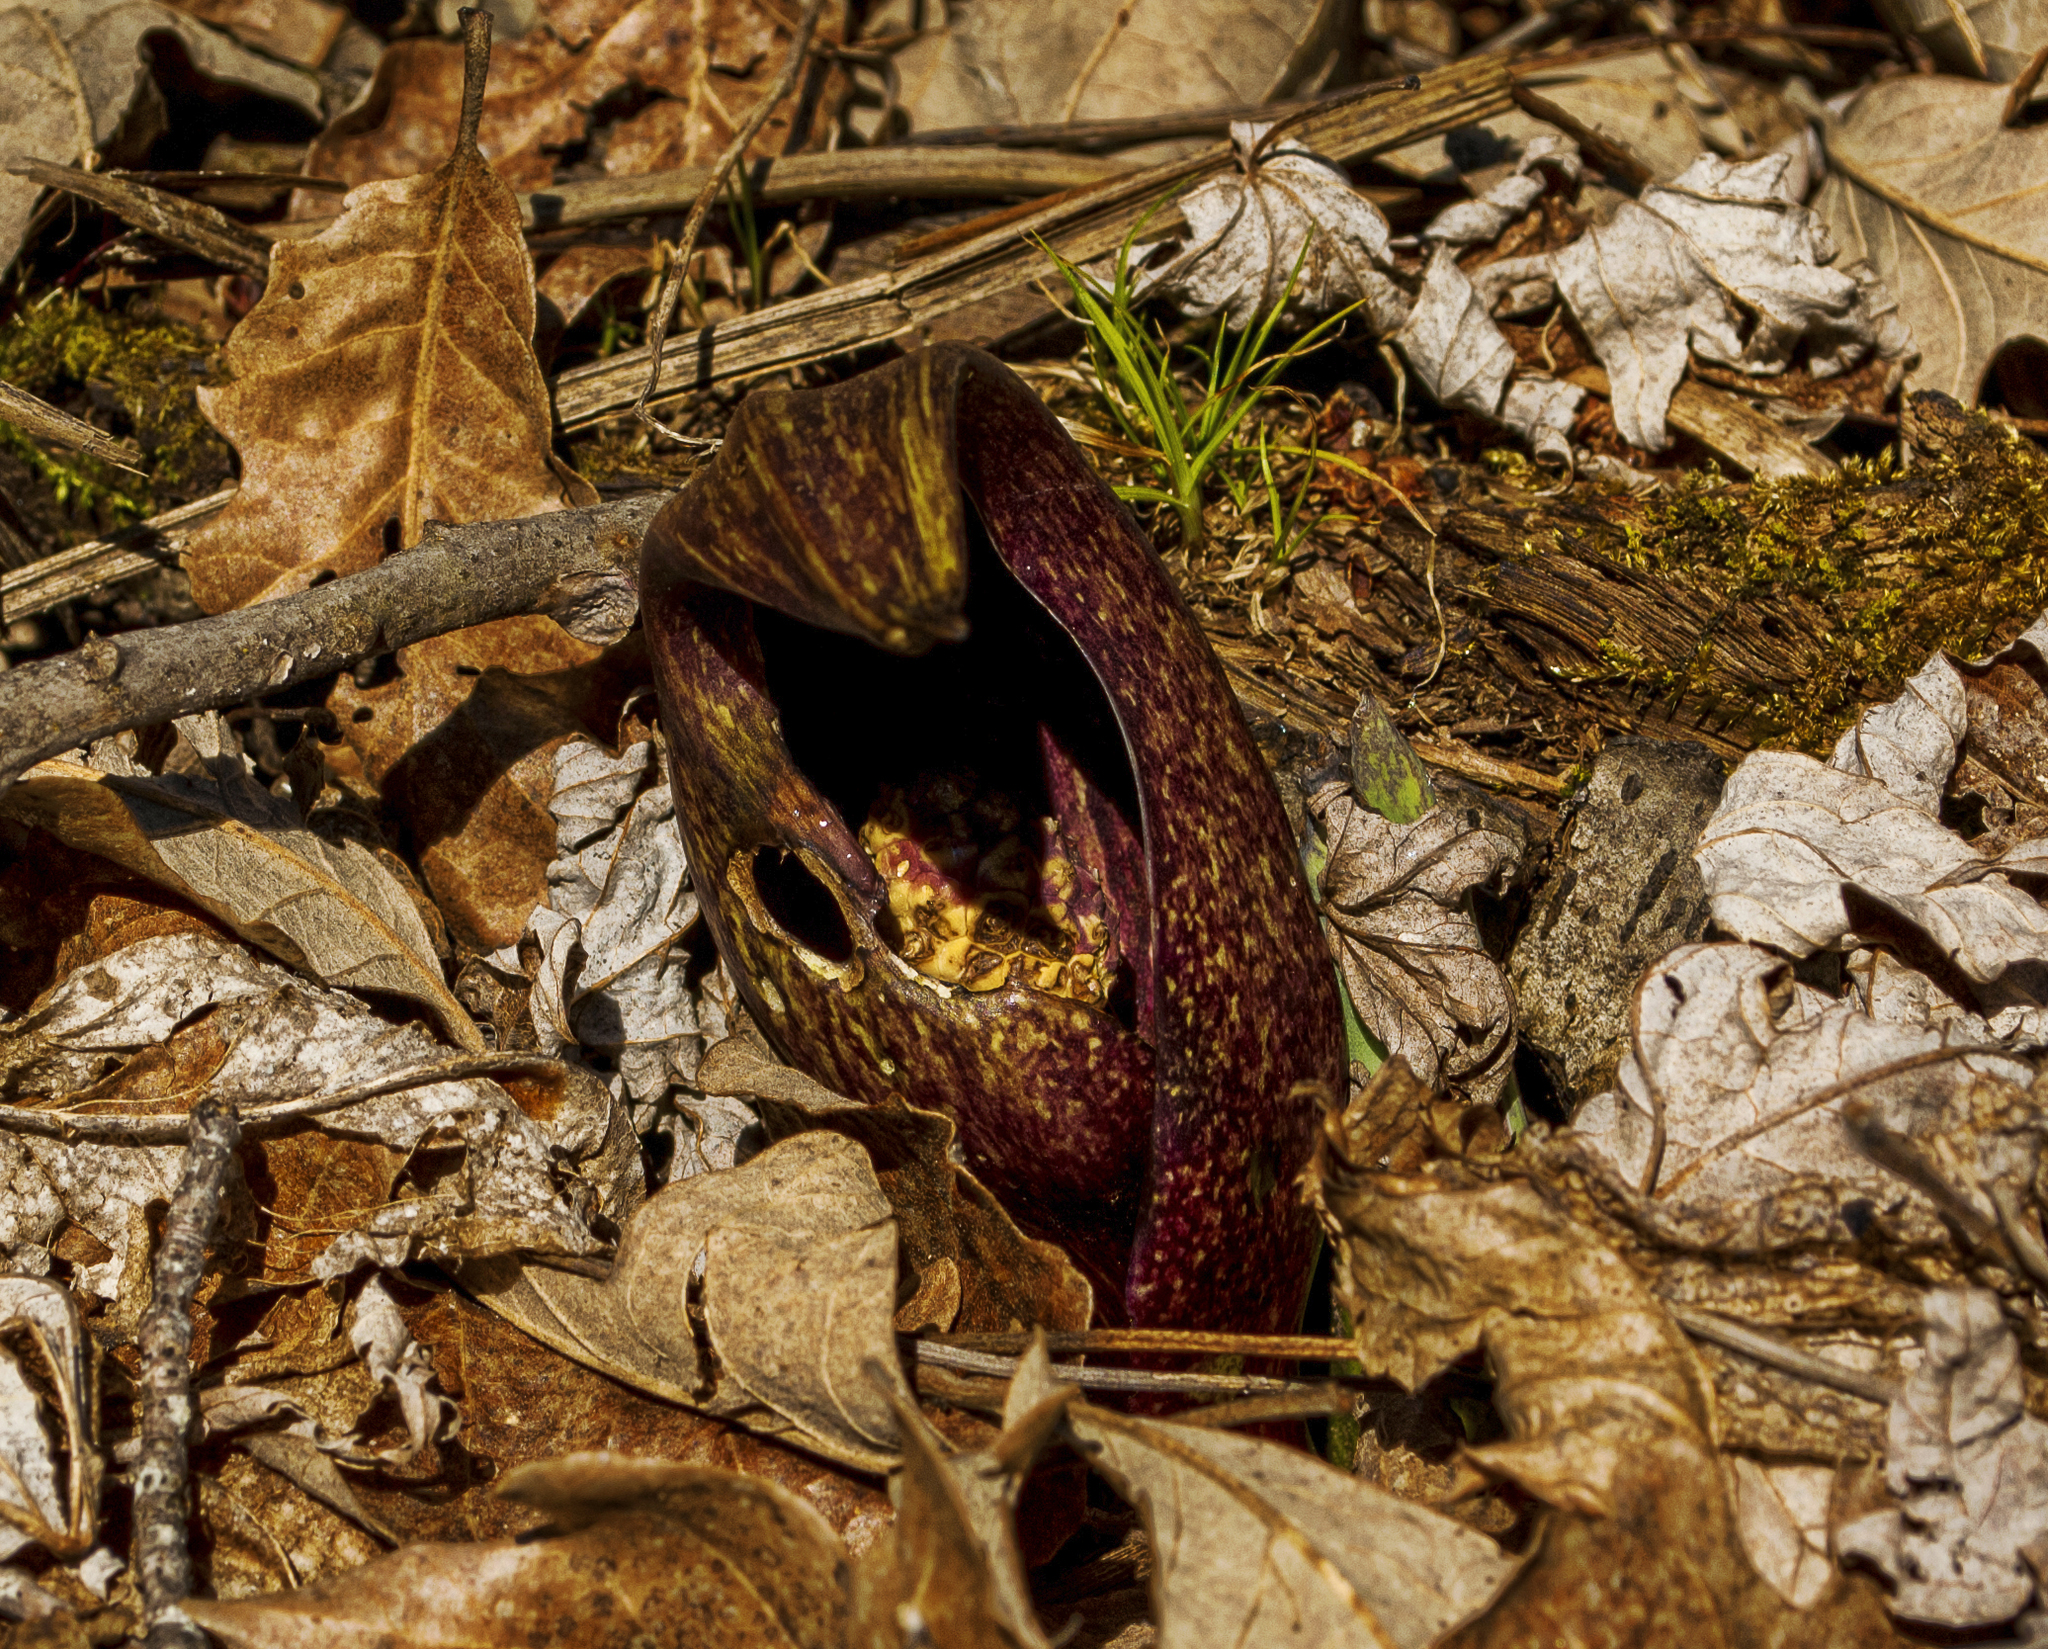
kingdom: Plantae
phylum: Tracheophyta
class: Liliopsida
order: Alismatales
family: Araceae
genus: Symplocarpus
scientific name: Symplocarpus foetidus
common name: Eastern skunk cabbage
